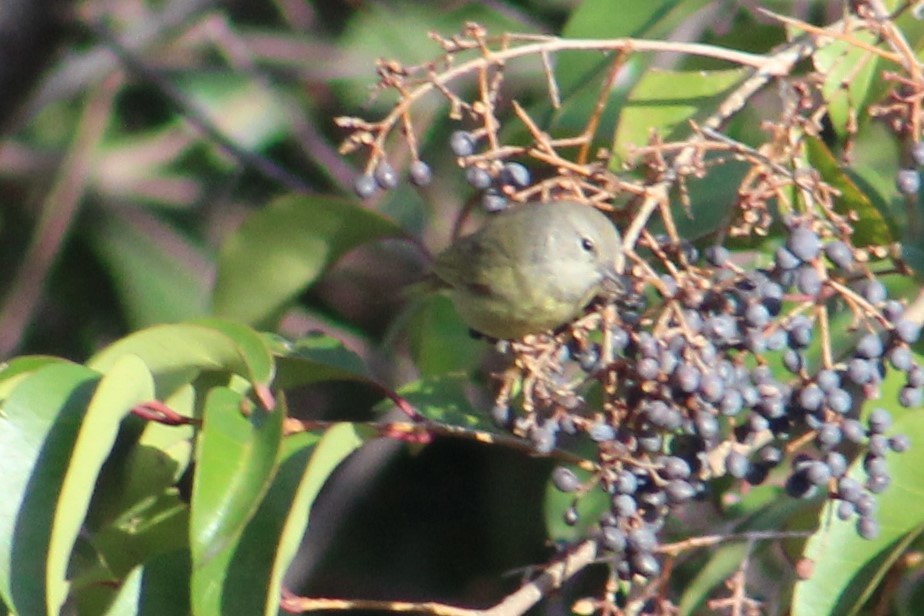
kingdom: Animalia
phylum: Chordata
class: Aves
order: Passeriformes
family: Parulidae
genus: Leiothlypis
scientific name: Leiothlypis celata
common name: Orange-crowned warbler
